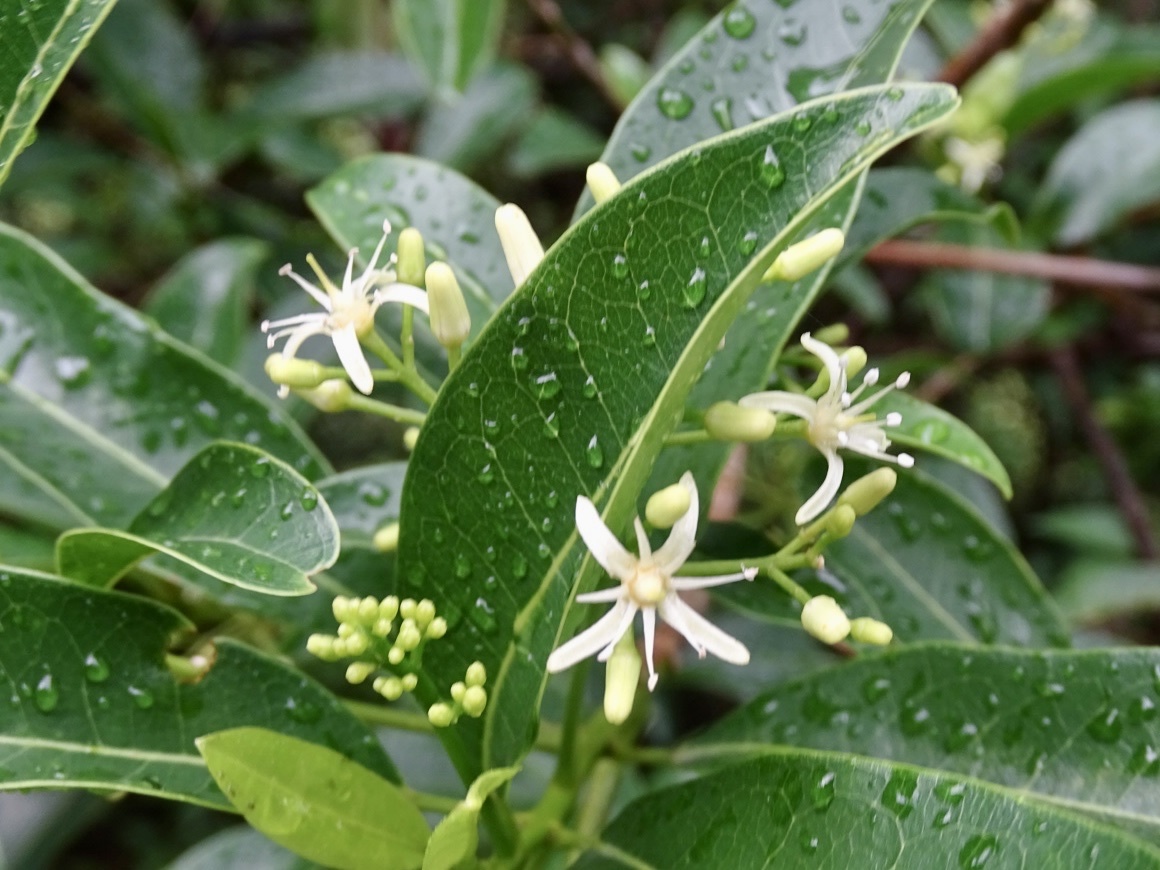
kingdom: Plantae
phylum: Tracheophyta
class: Magnoliopsida
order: Sapindales
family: Rutaceae
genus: Acronychia
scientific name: Acronychia pedunculata
